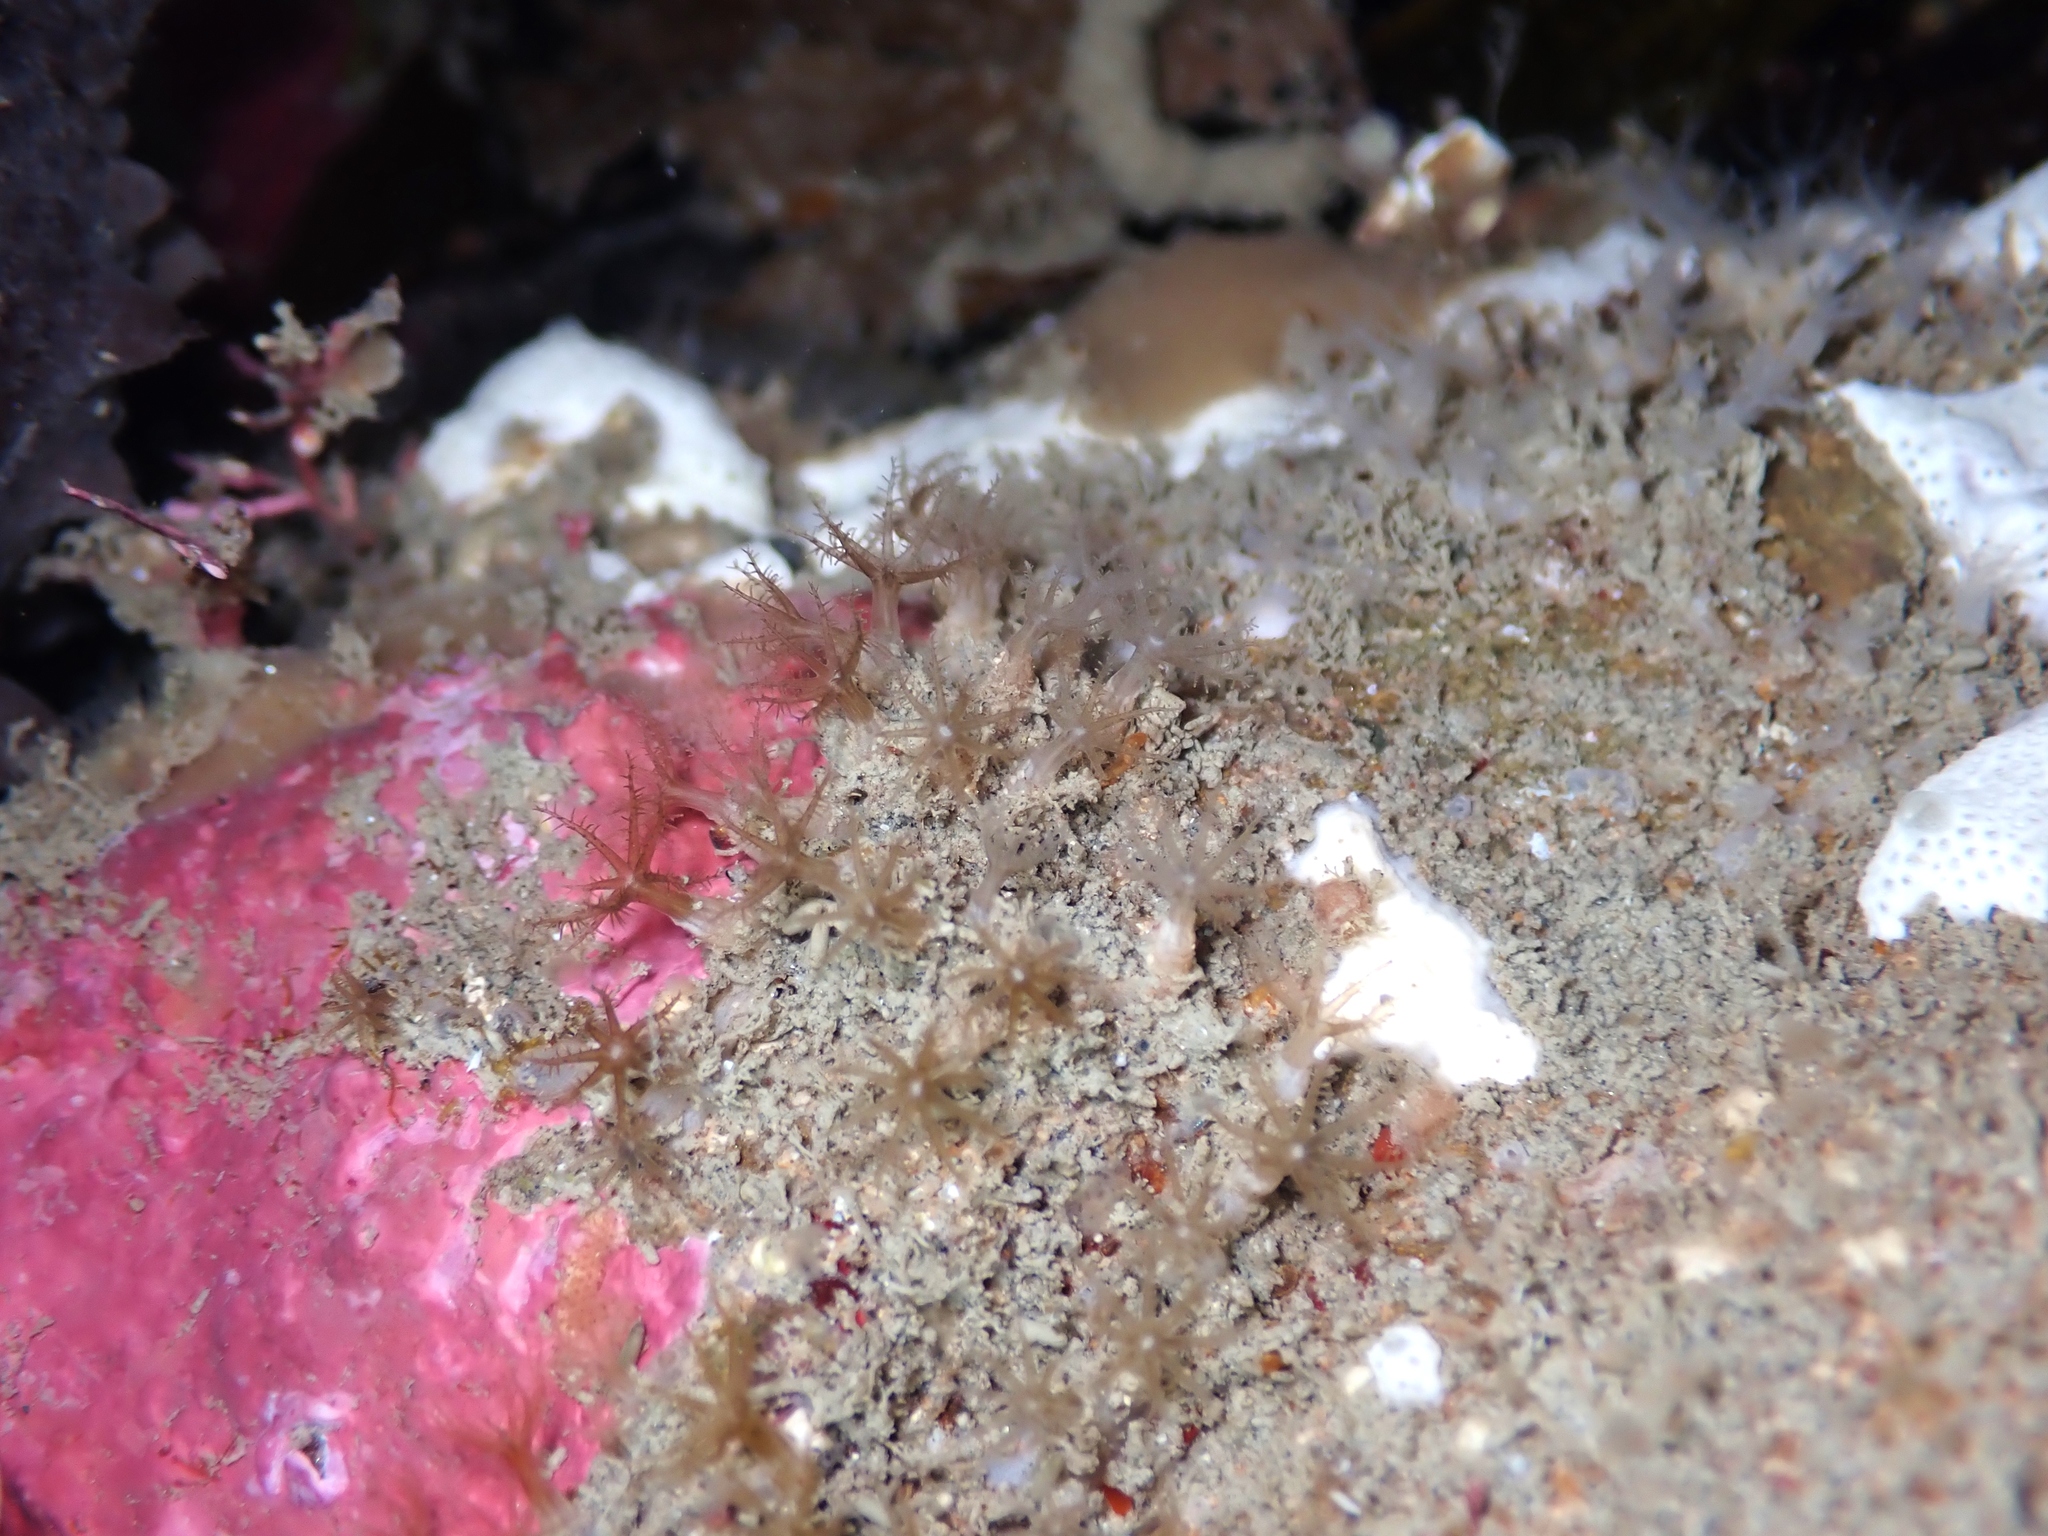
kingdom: Animalia
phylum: Cnidaria
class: Anthozoa
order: Malacalcyonacea
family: Clavulariidae
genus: Clavularia
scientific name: Clavularia novaezealandiae
